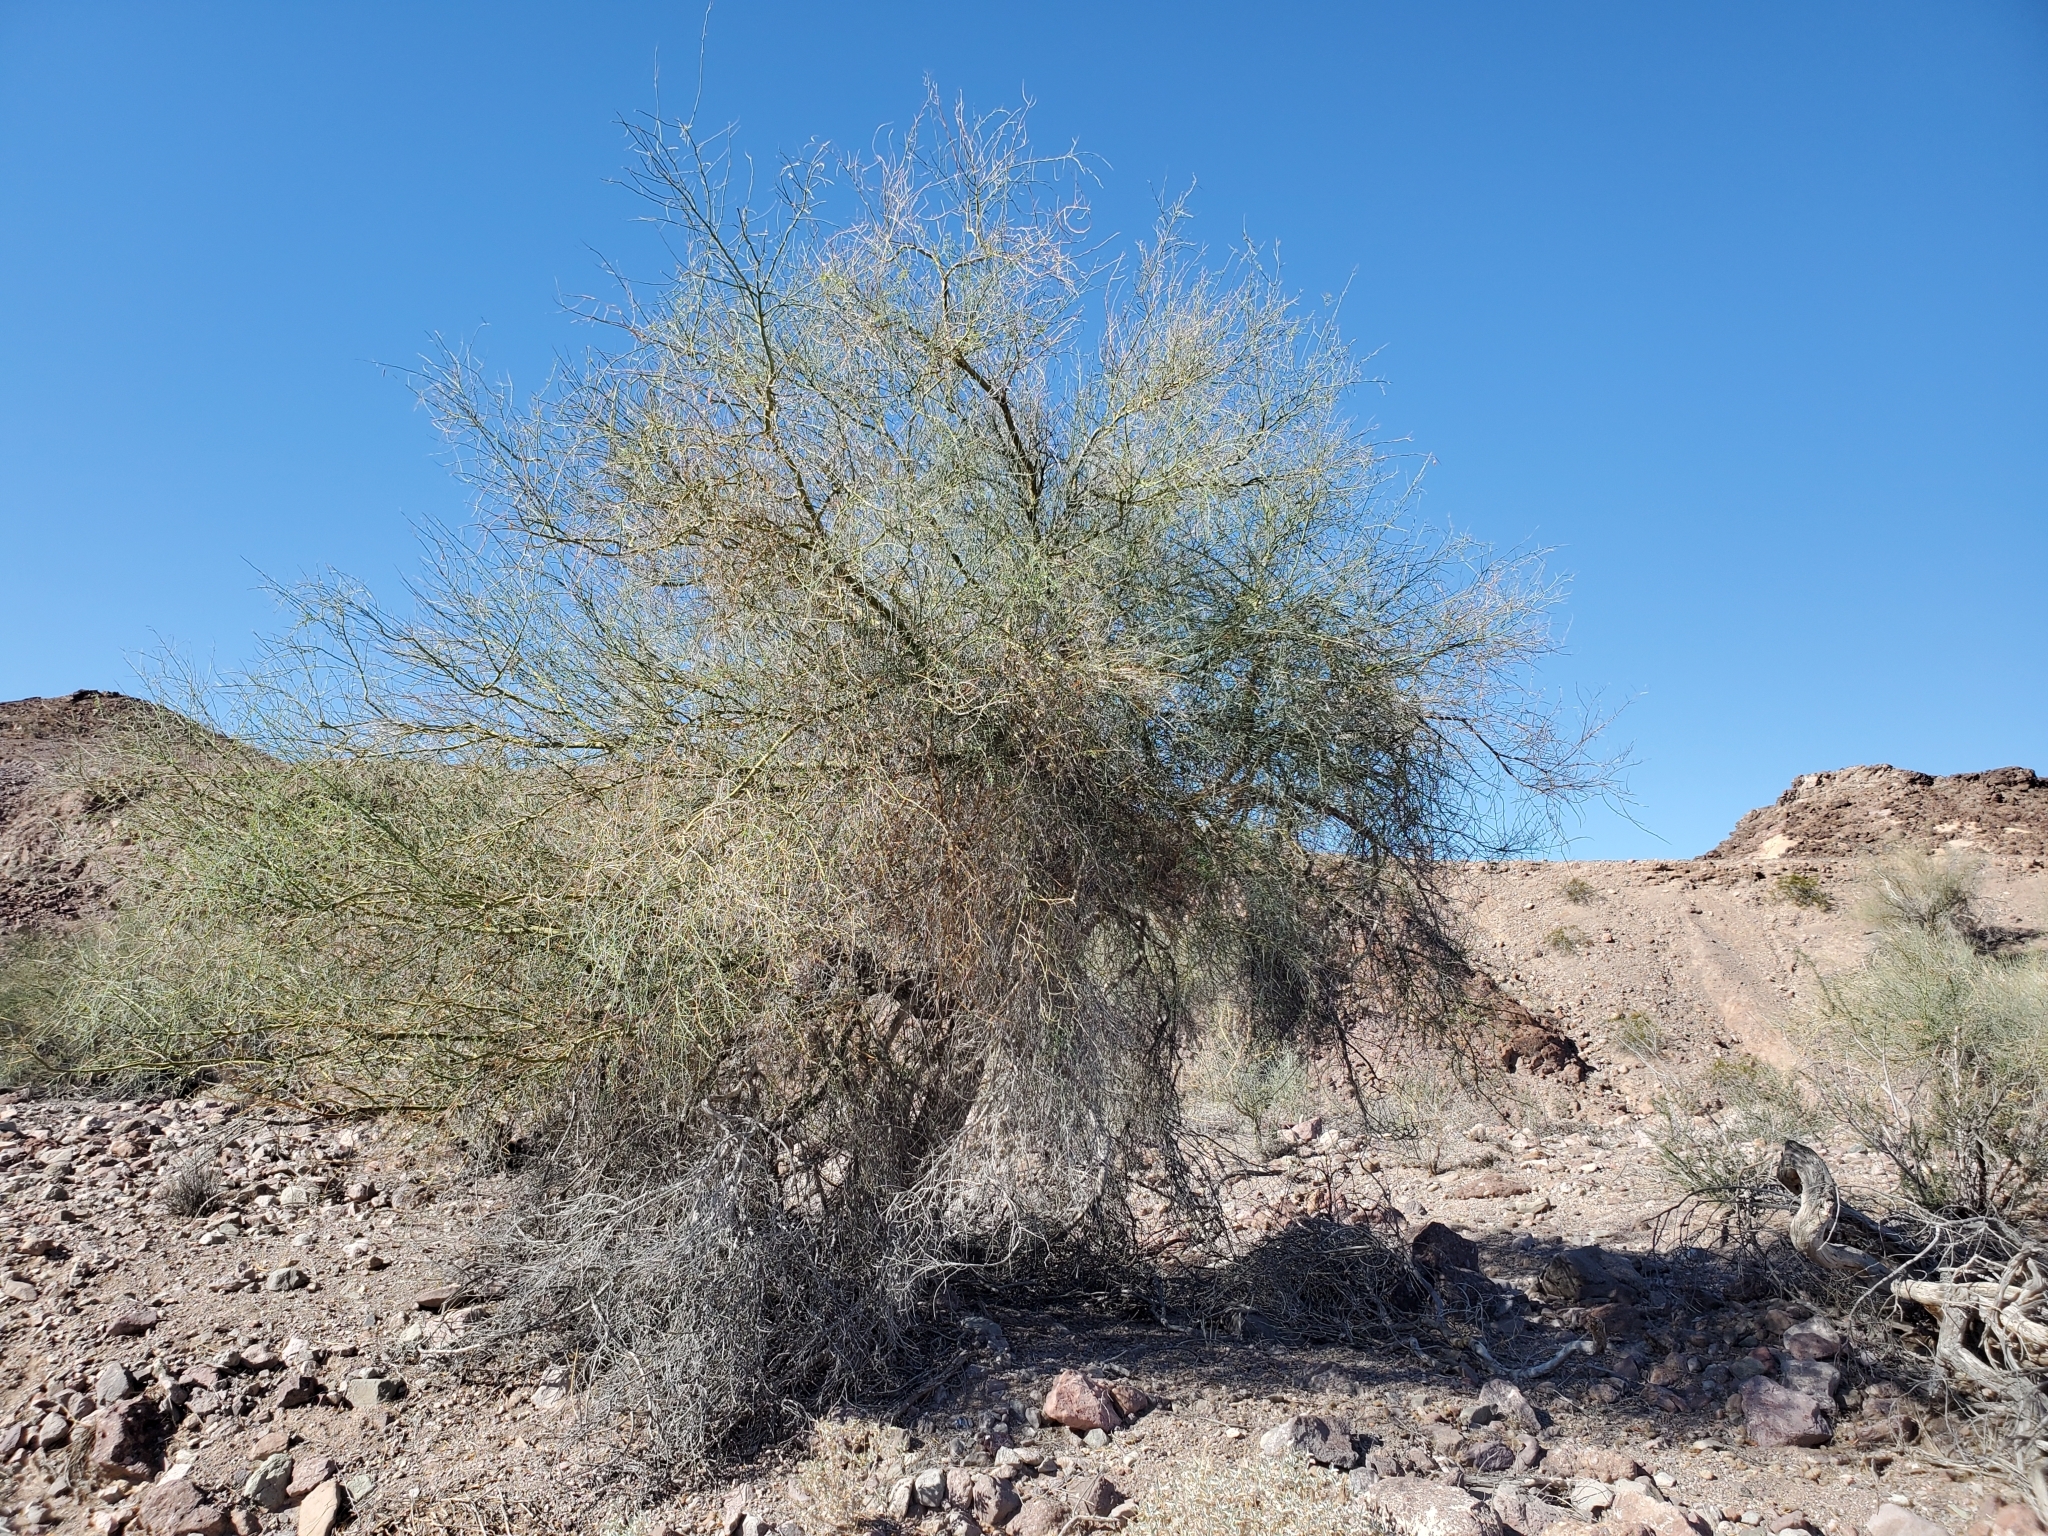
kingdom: Plantae
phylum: Tracheophyta
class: Magnoliopsida
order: Fabales
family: Fabaceae
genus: Parkinsonia
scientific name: Parkinsonia florida
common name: Blue paloverde
